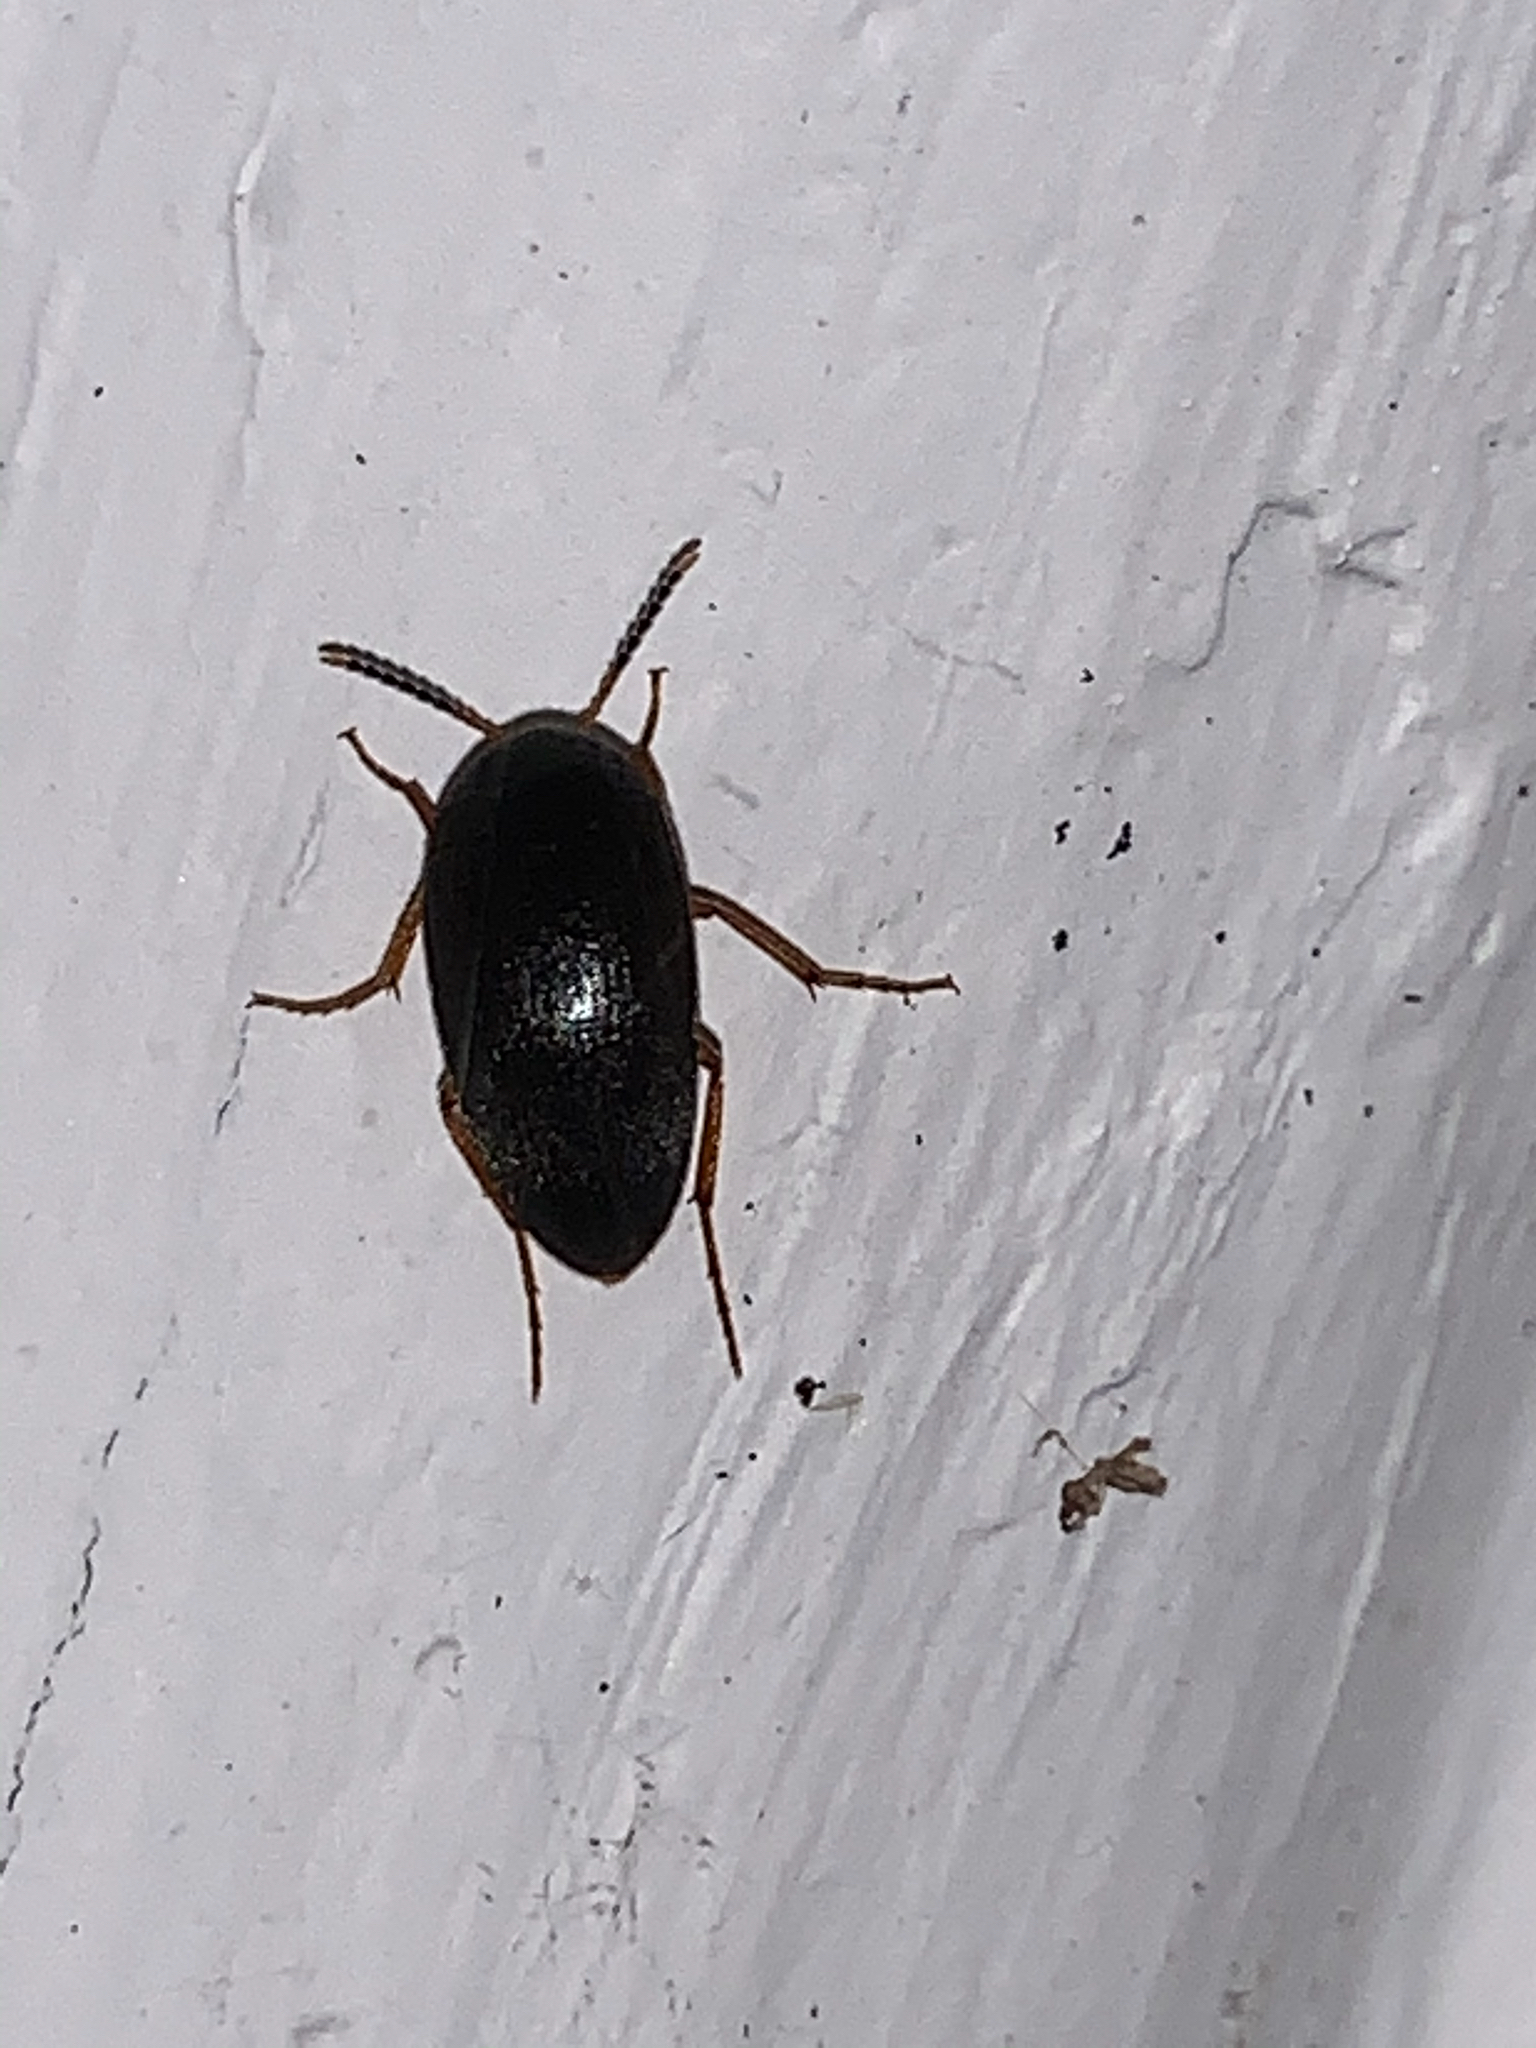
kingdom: Animalia
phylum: Arthropoda
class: Insecta
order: Coleoptera
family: Tetratomidae
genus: Eustrophopsis
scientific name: Eustrophopsis bicolor
